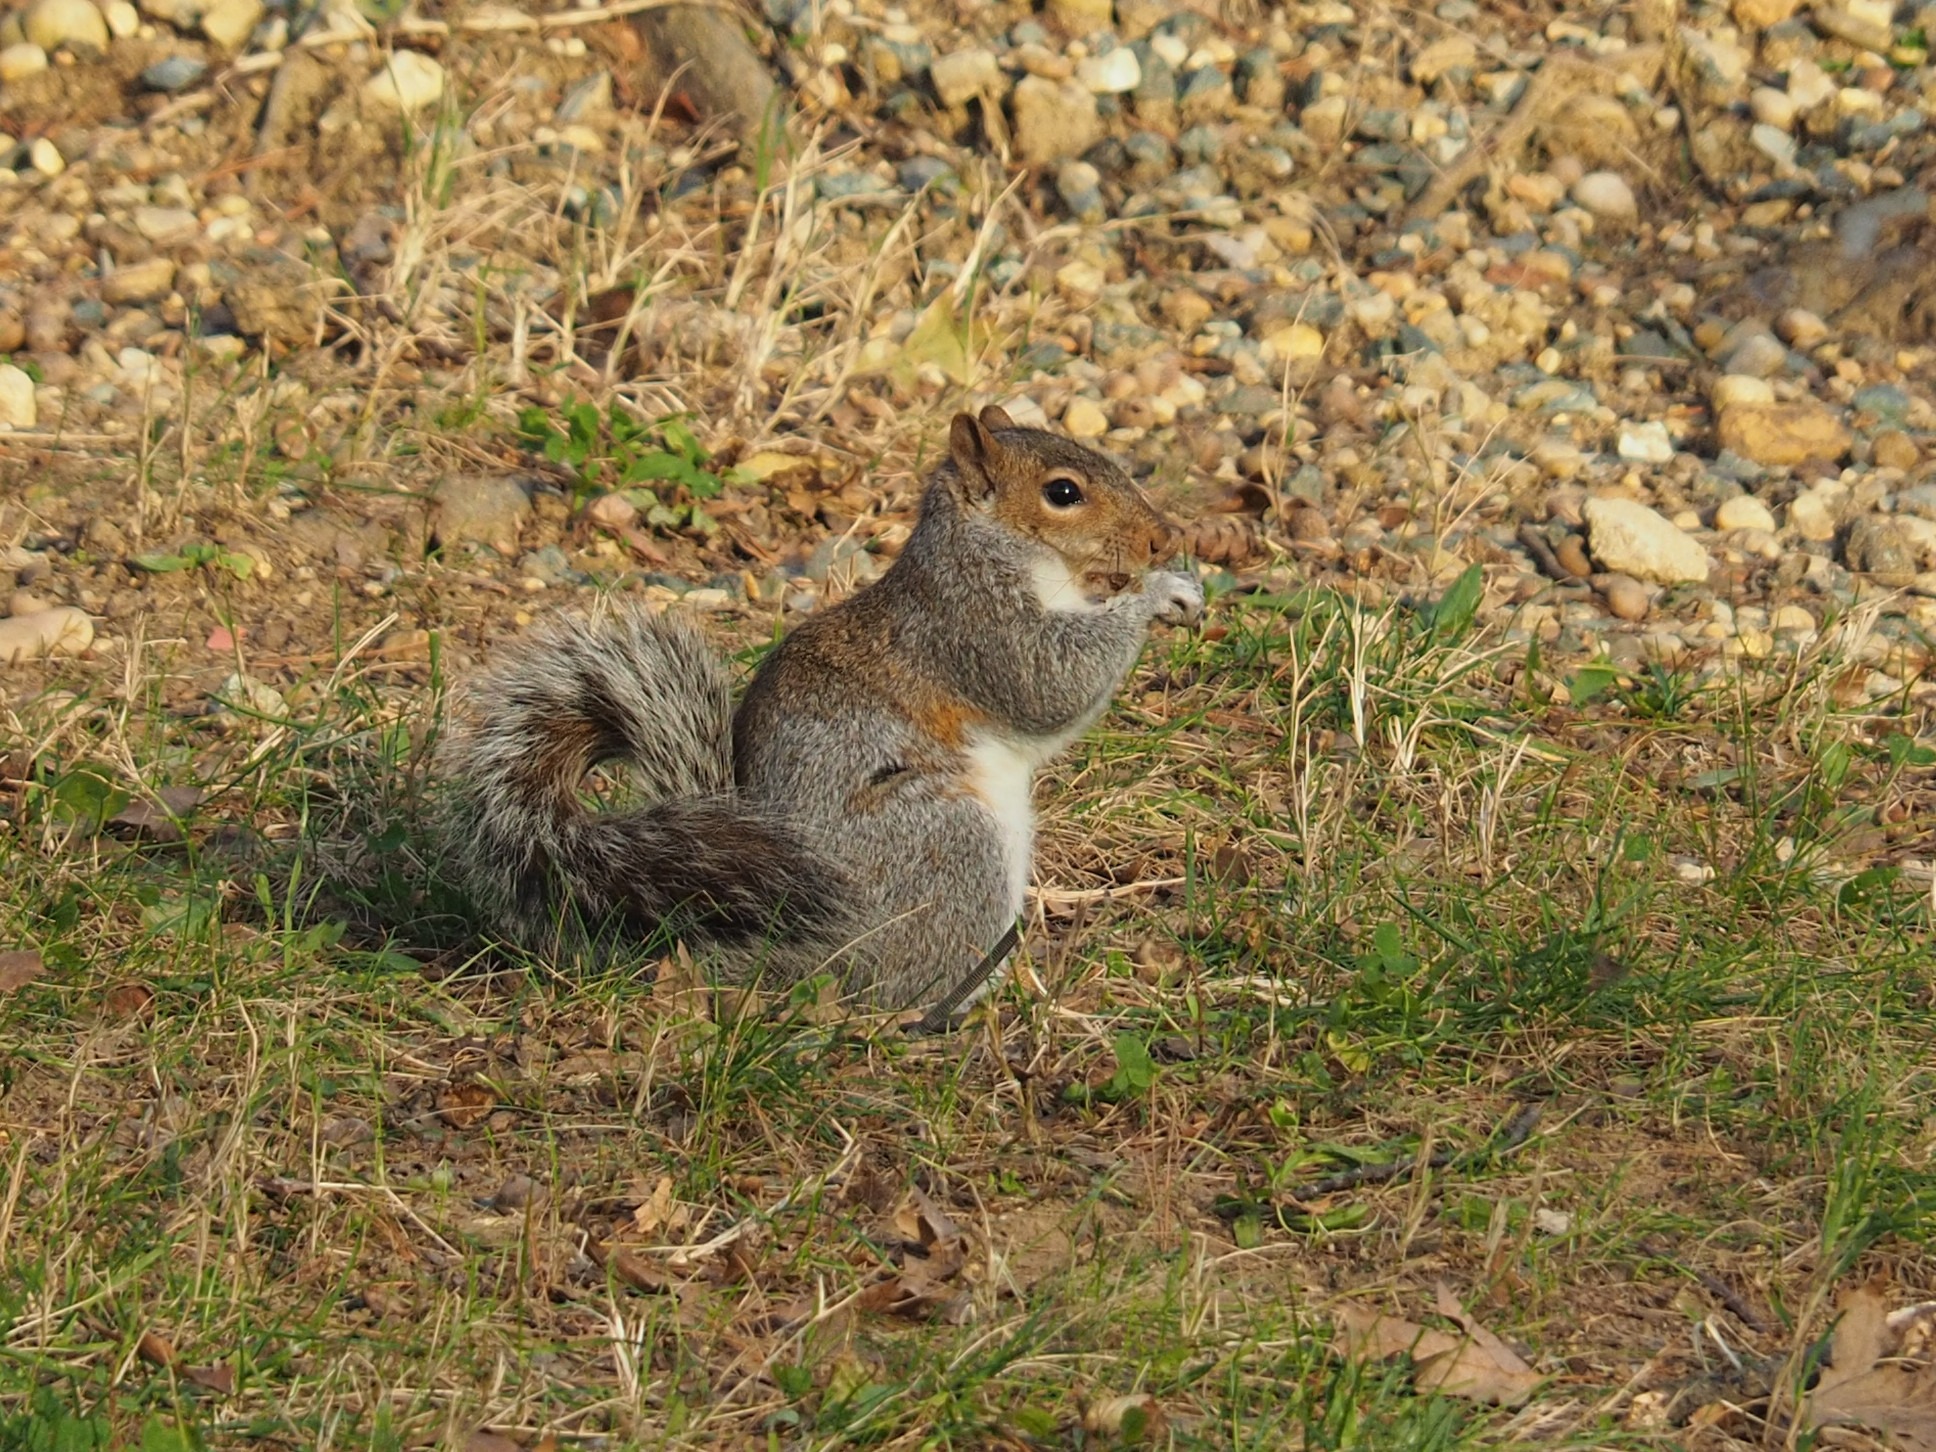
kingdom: Animalia
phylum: Chordata
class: Mammalia
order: Rodentia
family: Sciuridae
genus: Sciurus
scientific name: Sciurus carolinensis
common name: Eastern gray squirrel
